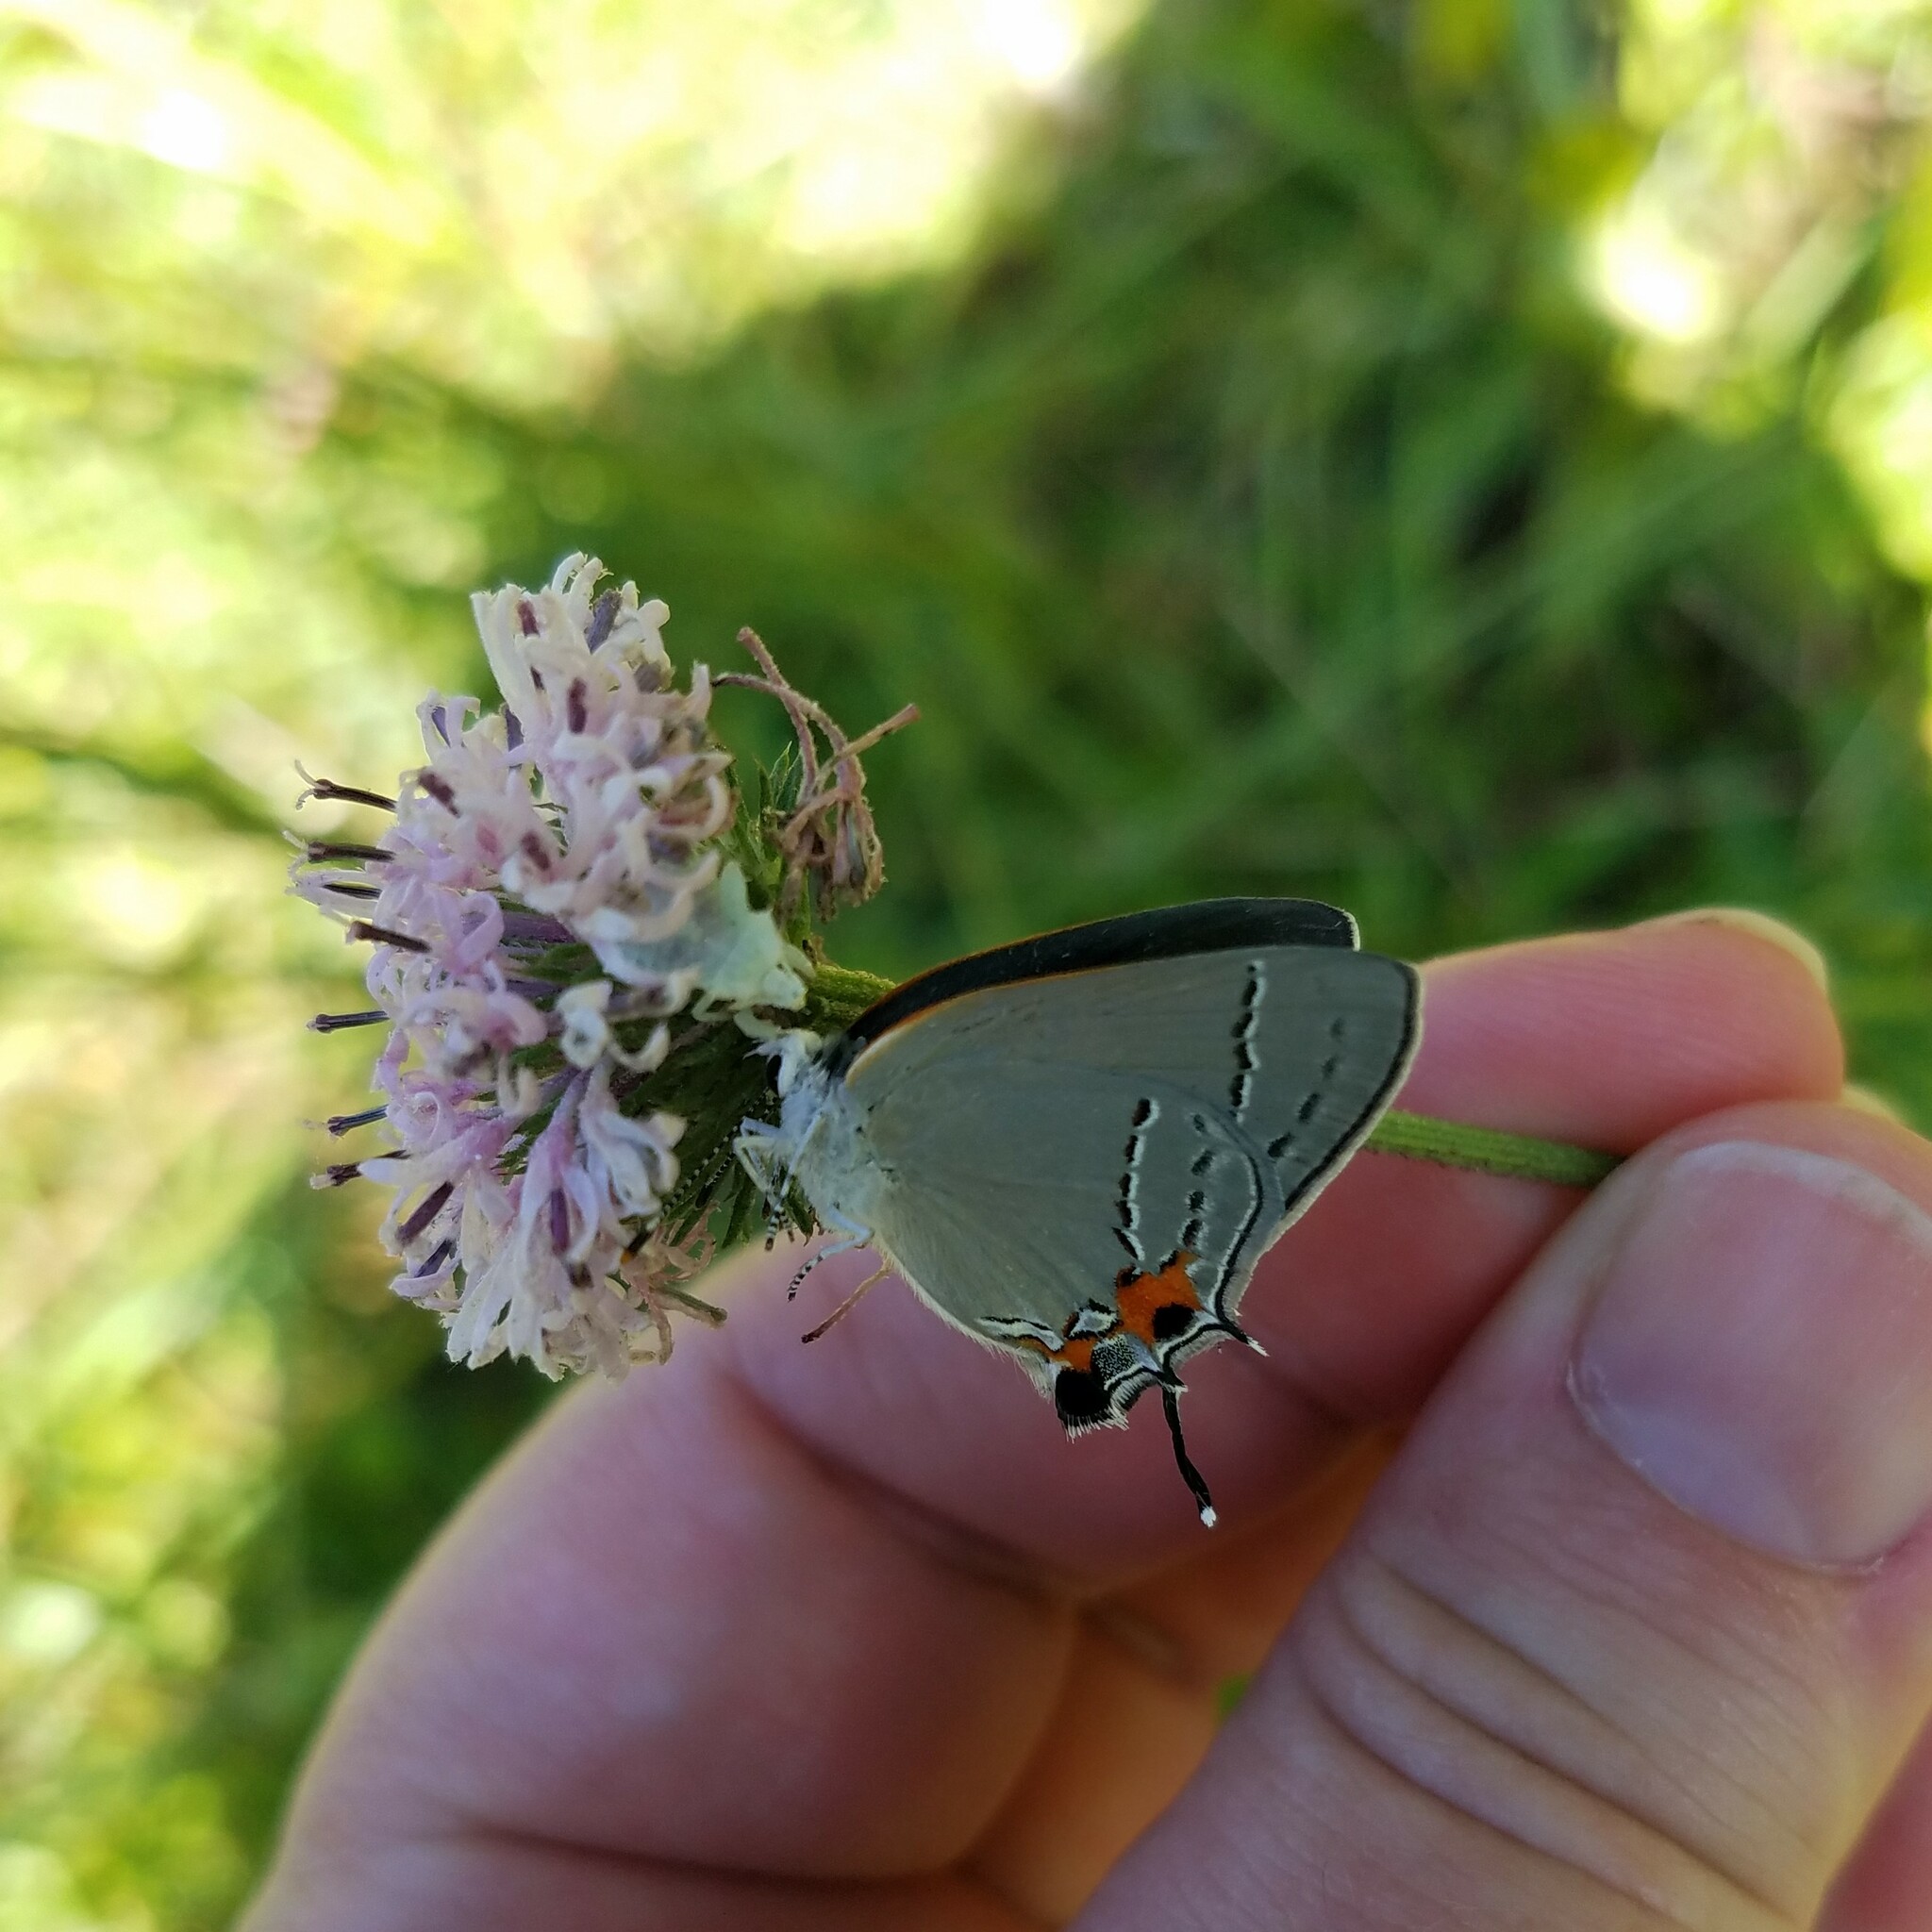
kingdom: Animalia
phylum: Arthropoda
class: Insecta
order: Lepidoptera
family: Lycaenidae
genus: Strymon
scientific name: Strymon melinus
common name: Gray hairstreak
